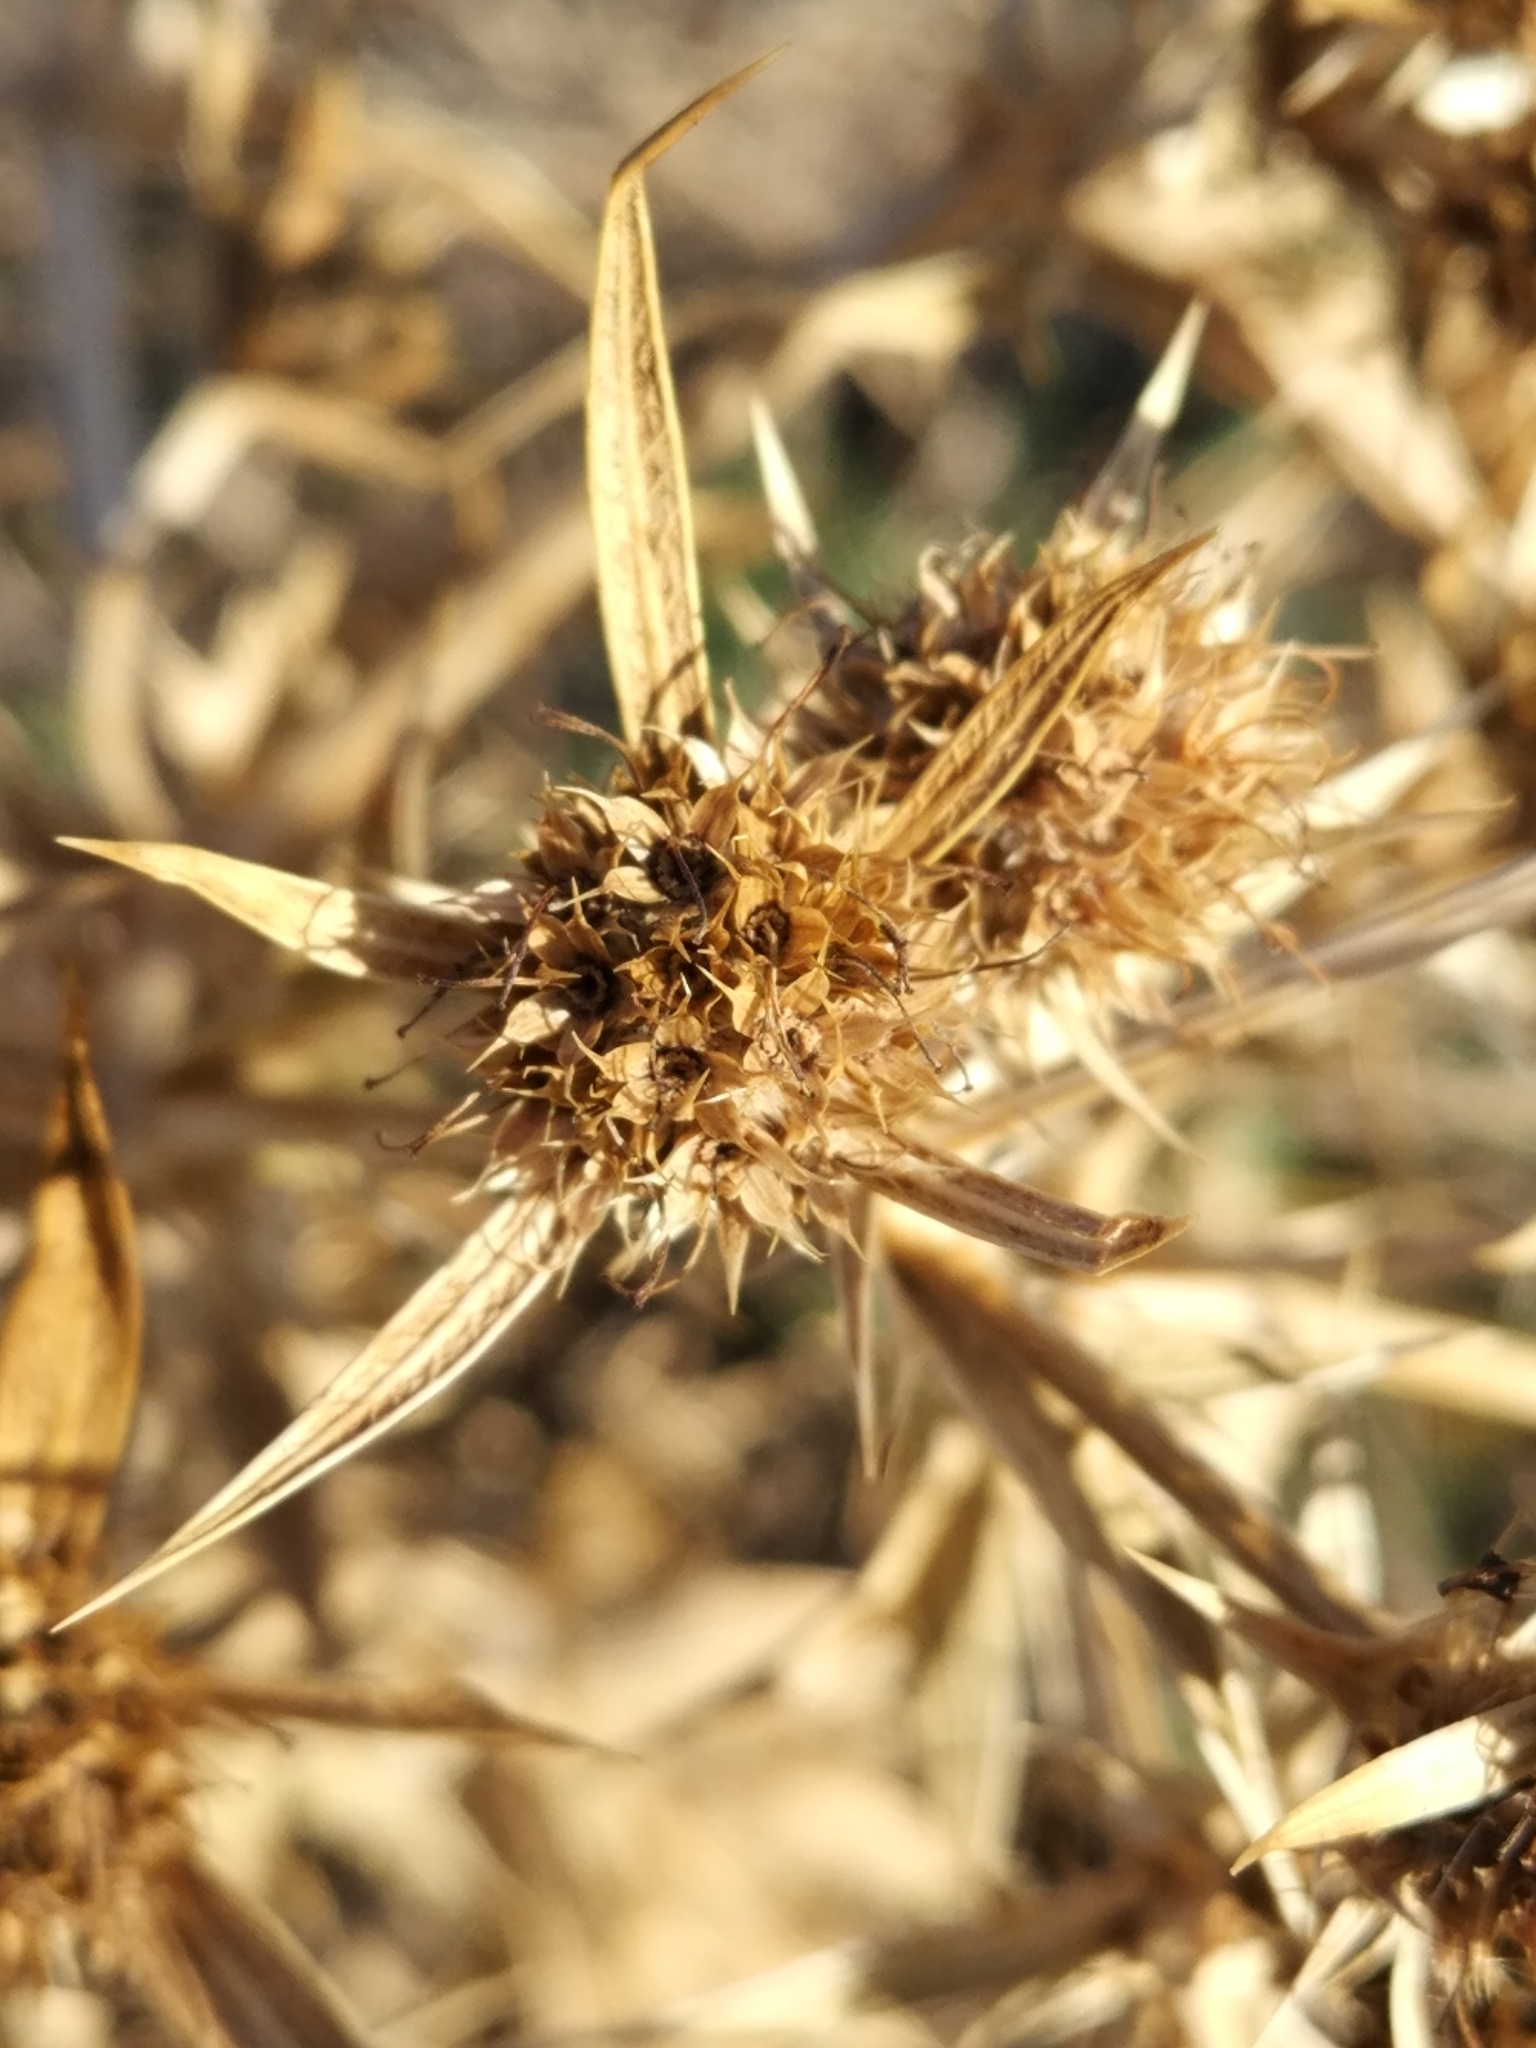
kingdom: Plantae
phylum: Tracheophyta
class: Magnoliopsida
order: Apiales
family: Apiaceae
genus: Eryngium
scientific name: Eryngium campestre
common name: Field eryngo
